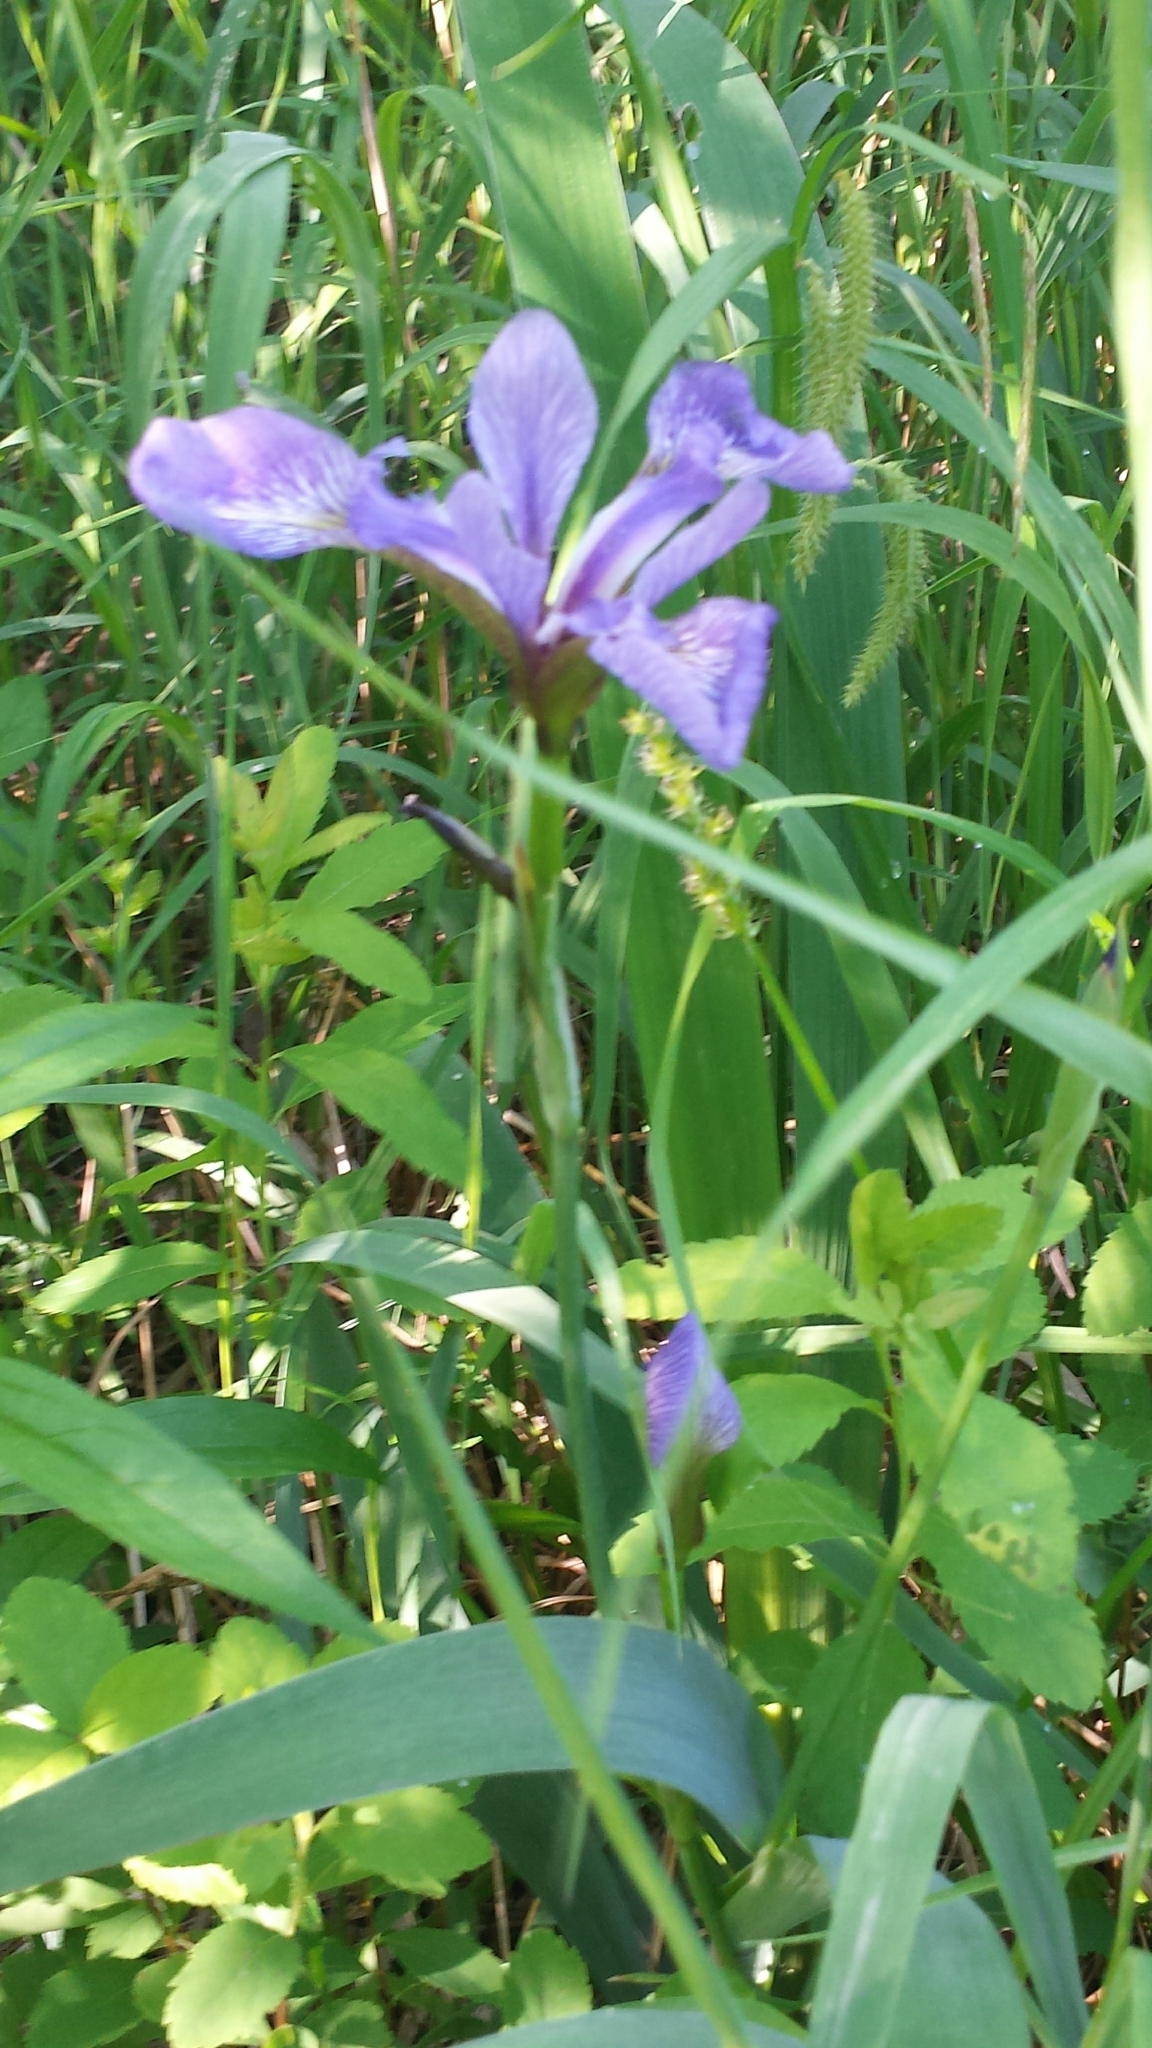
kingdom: Plantae
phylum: Tracheophyta
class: Liliopsida
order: Asparagales
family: Iridaceae
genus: Iris
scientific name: Iris versicolor
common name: Purple iris
